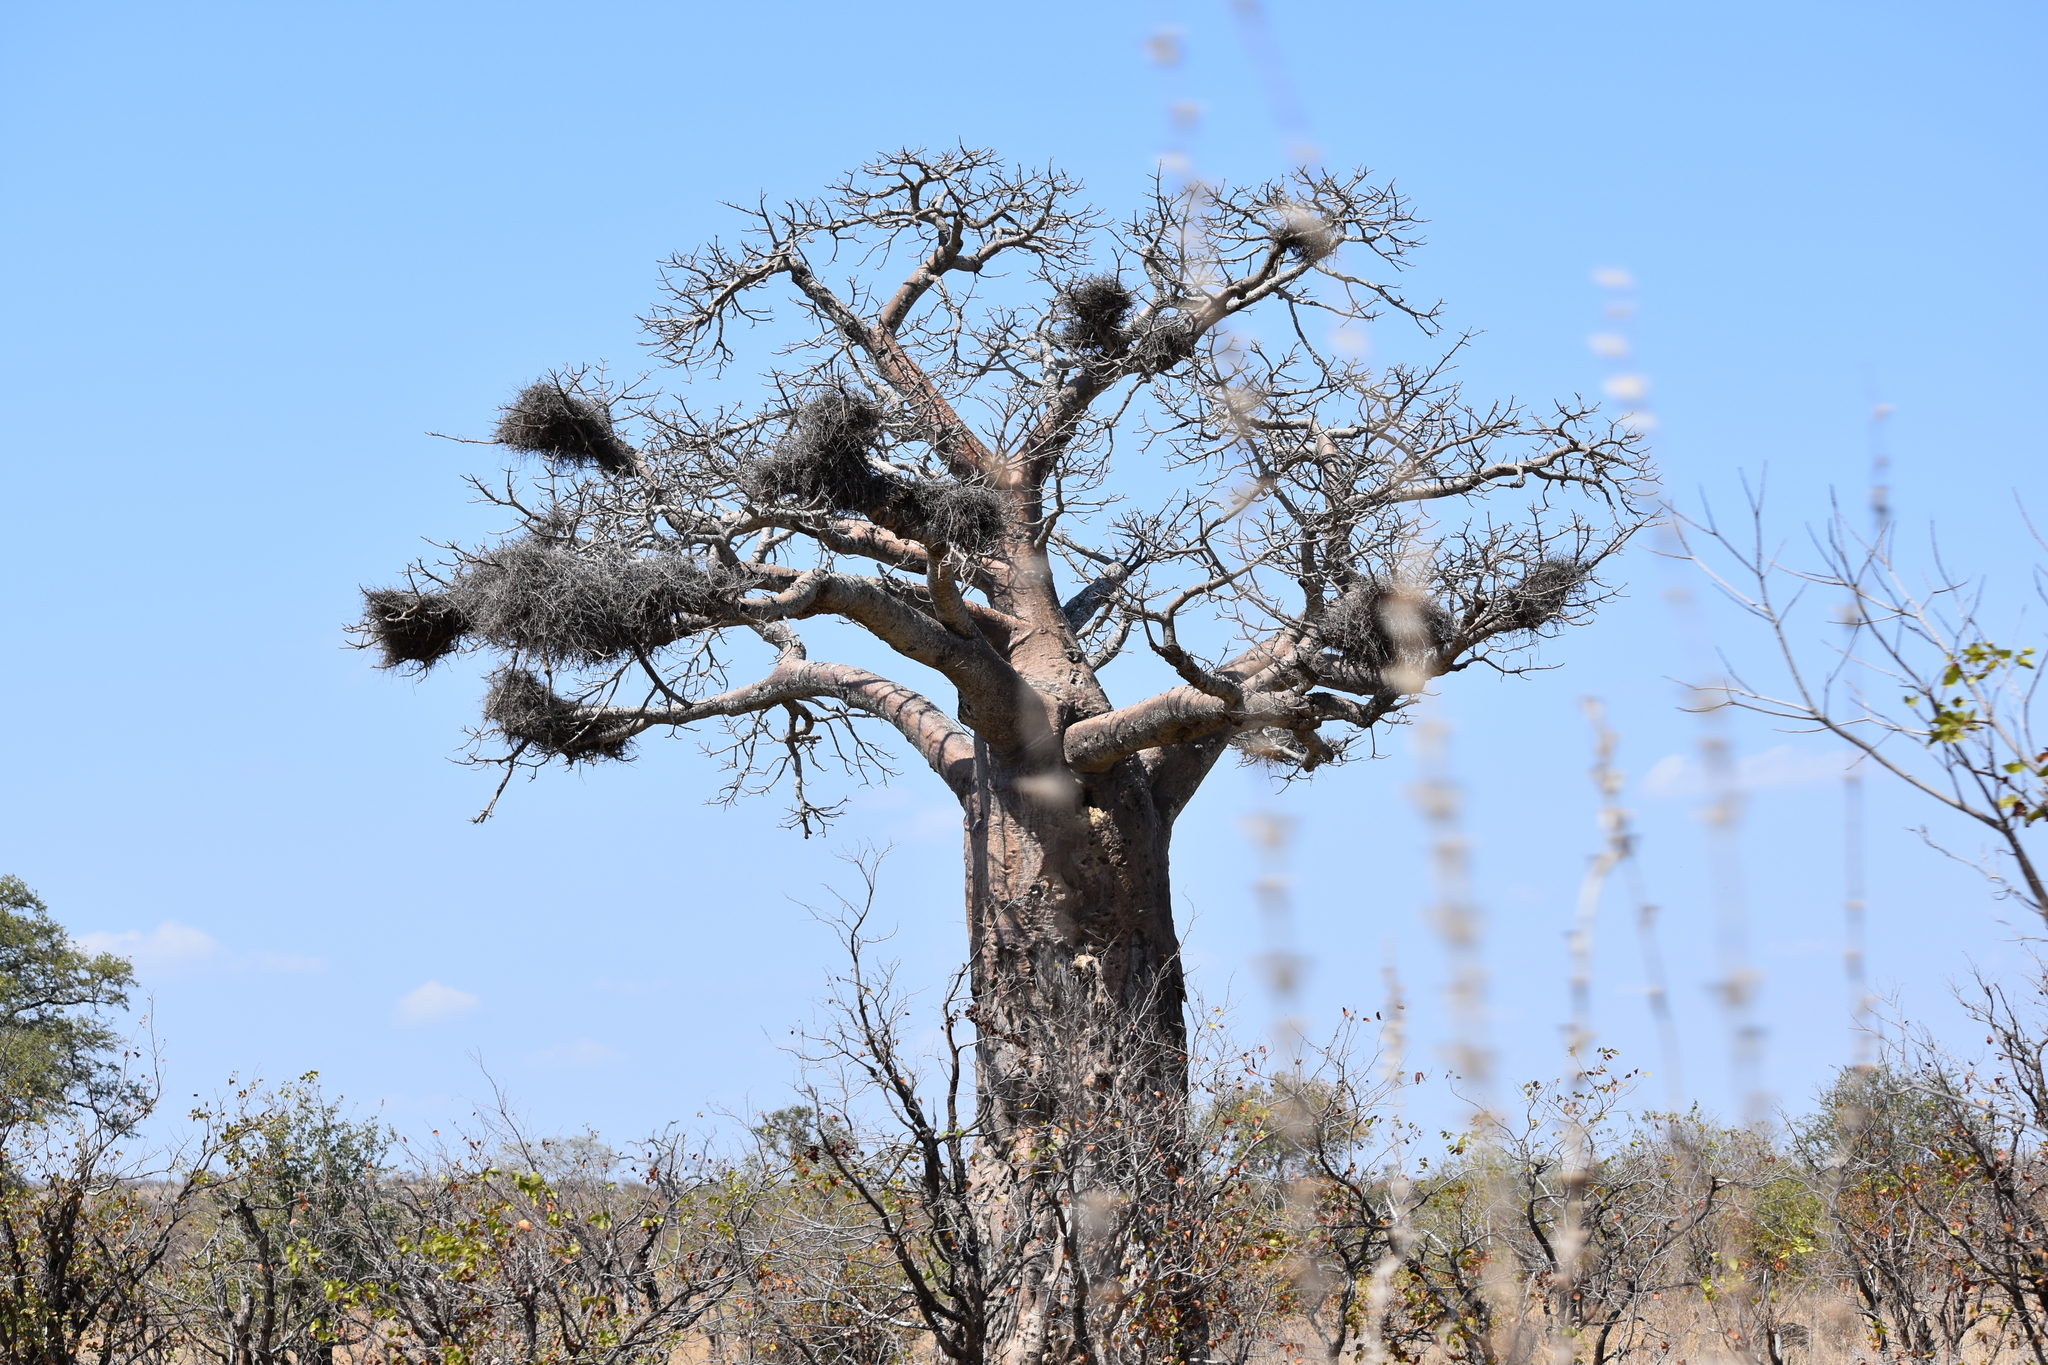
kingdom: Plantae
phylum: Tracheophyta
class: Magnoliopsida
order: Malvales
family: Malvaceae
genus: Adansonia
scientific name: Adansonia digitata
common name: Dead-rat-tree
